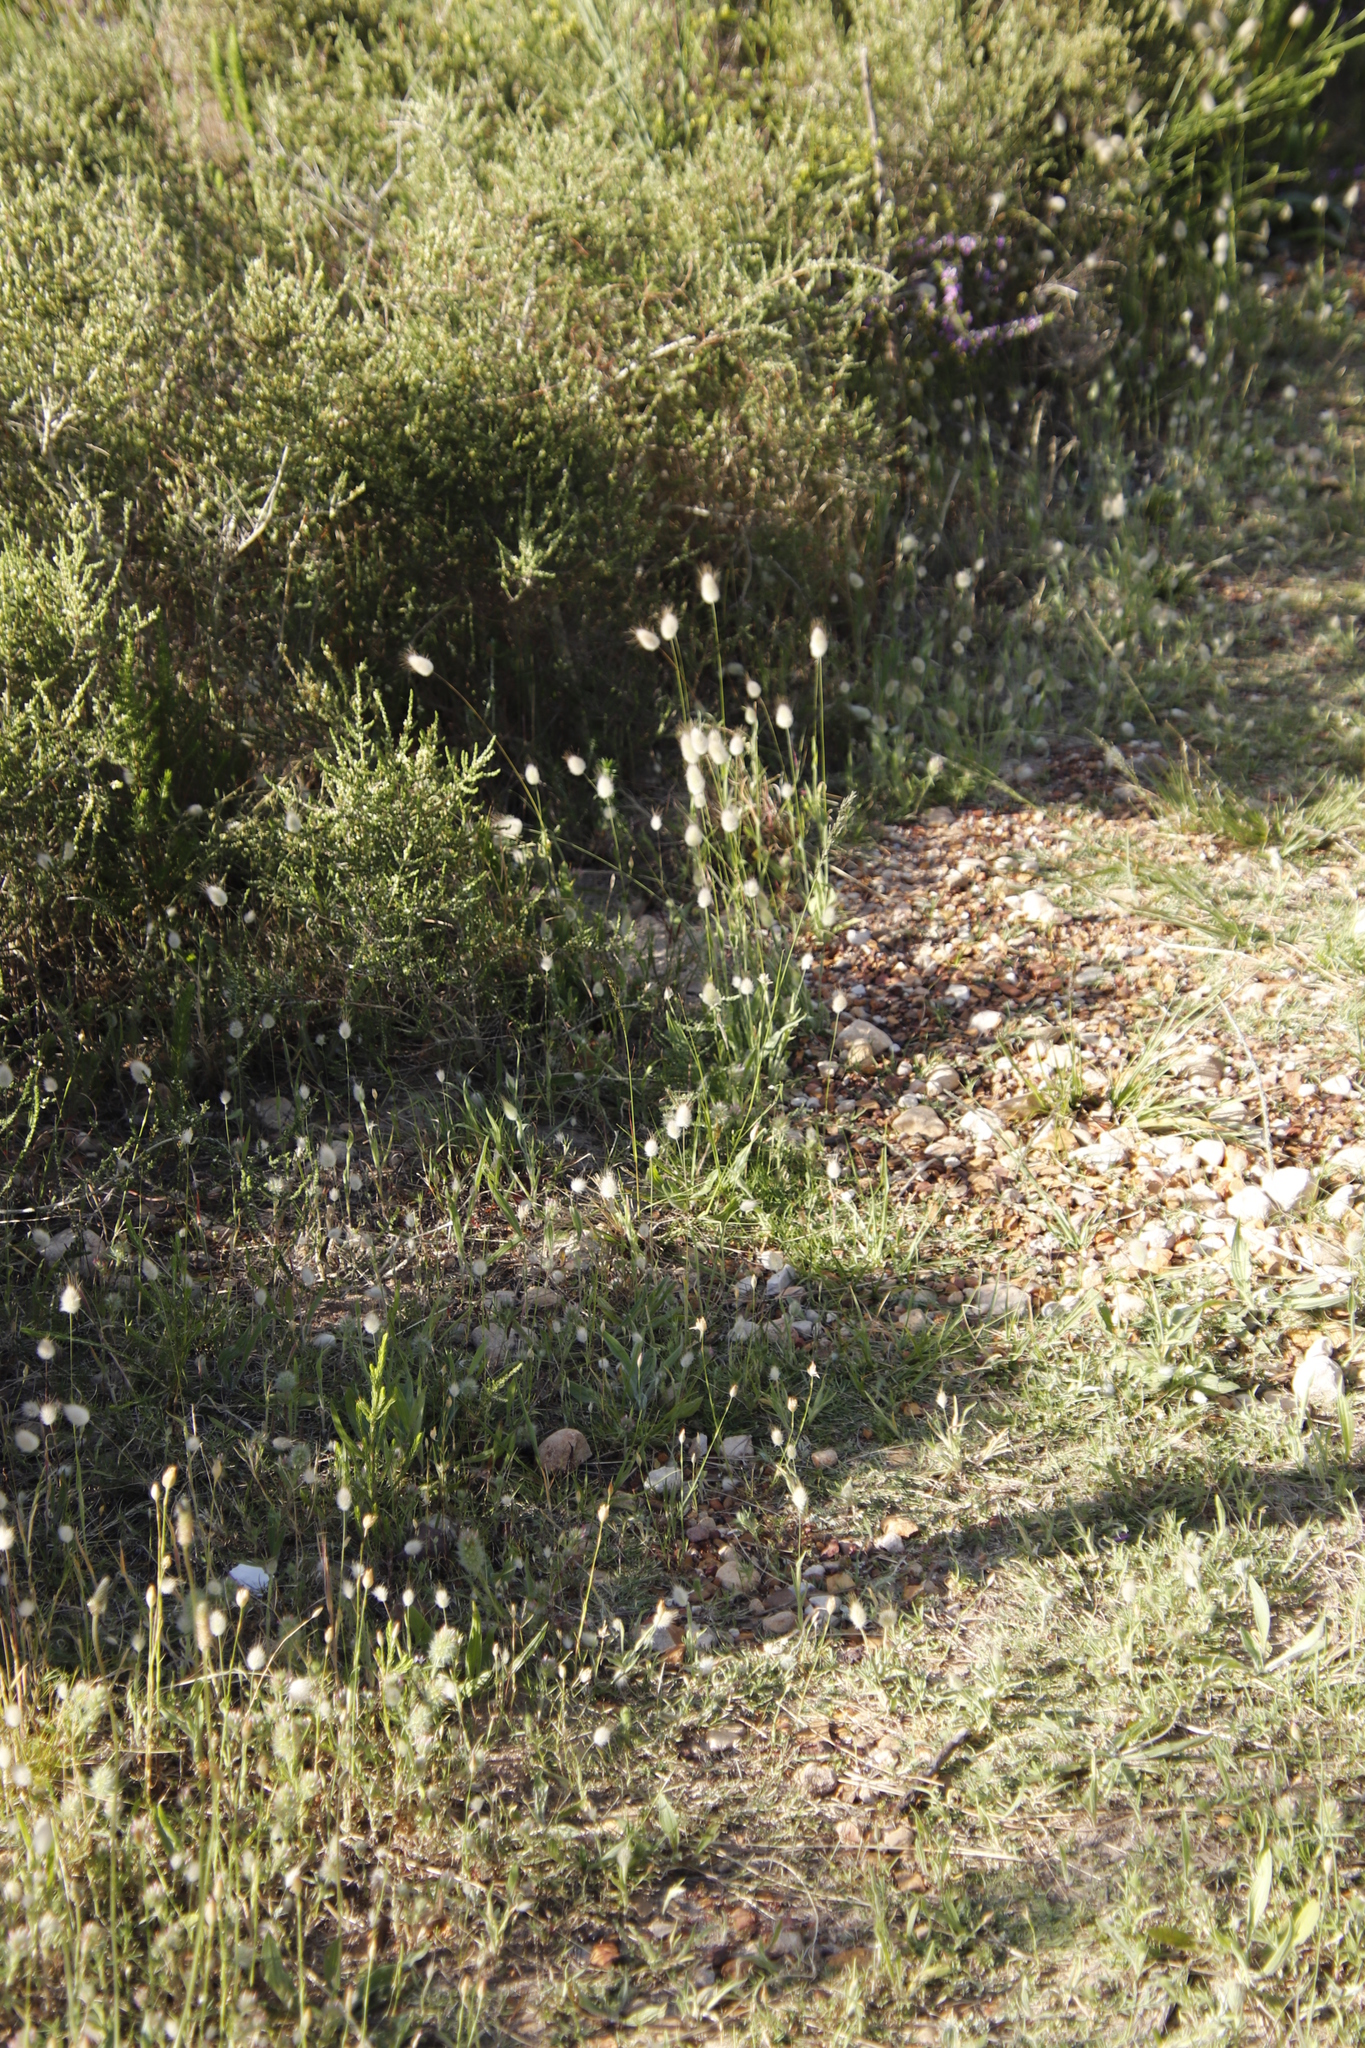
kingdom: Plantae
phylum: Tracheophyta
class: Liliopsida
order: Poales
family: Poaceae
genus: Lagurus
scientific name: Lagurus ovatus
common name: Hare's-tail
